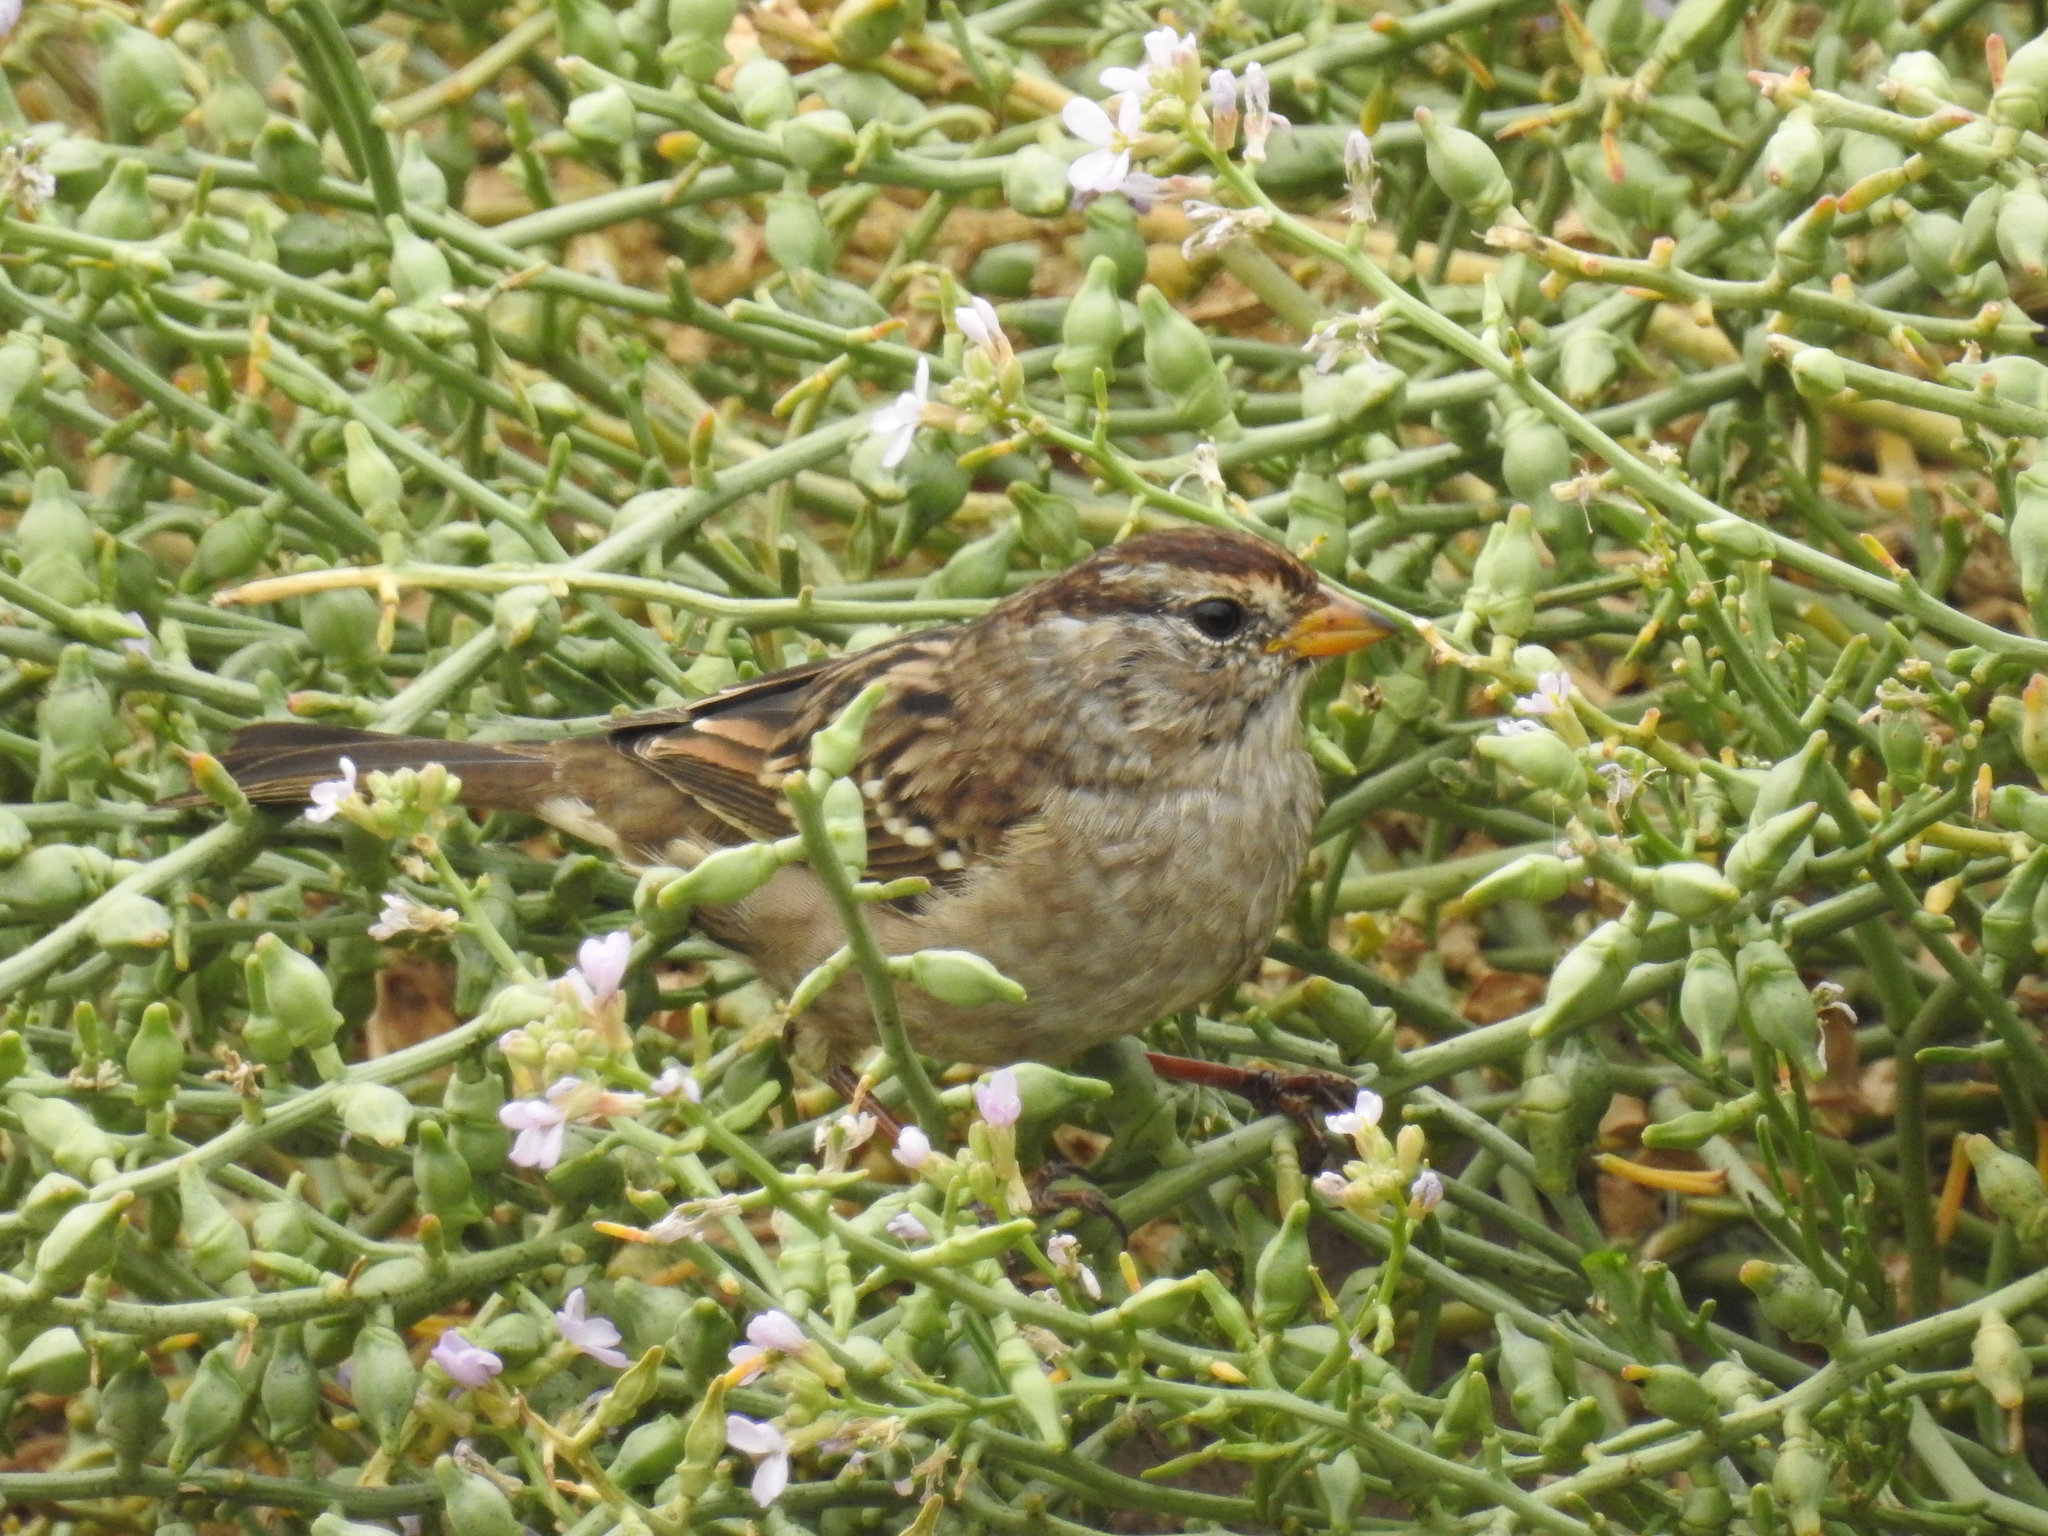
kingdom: Animalia
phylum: Chordata
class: Aves
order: Passeriformes
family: Passerellidae
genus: Zonotrichia
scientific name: Zonotrichia leucophrys
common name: White-crowned sparrow
